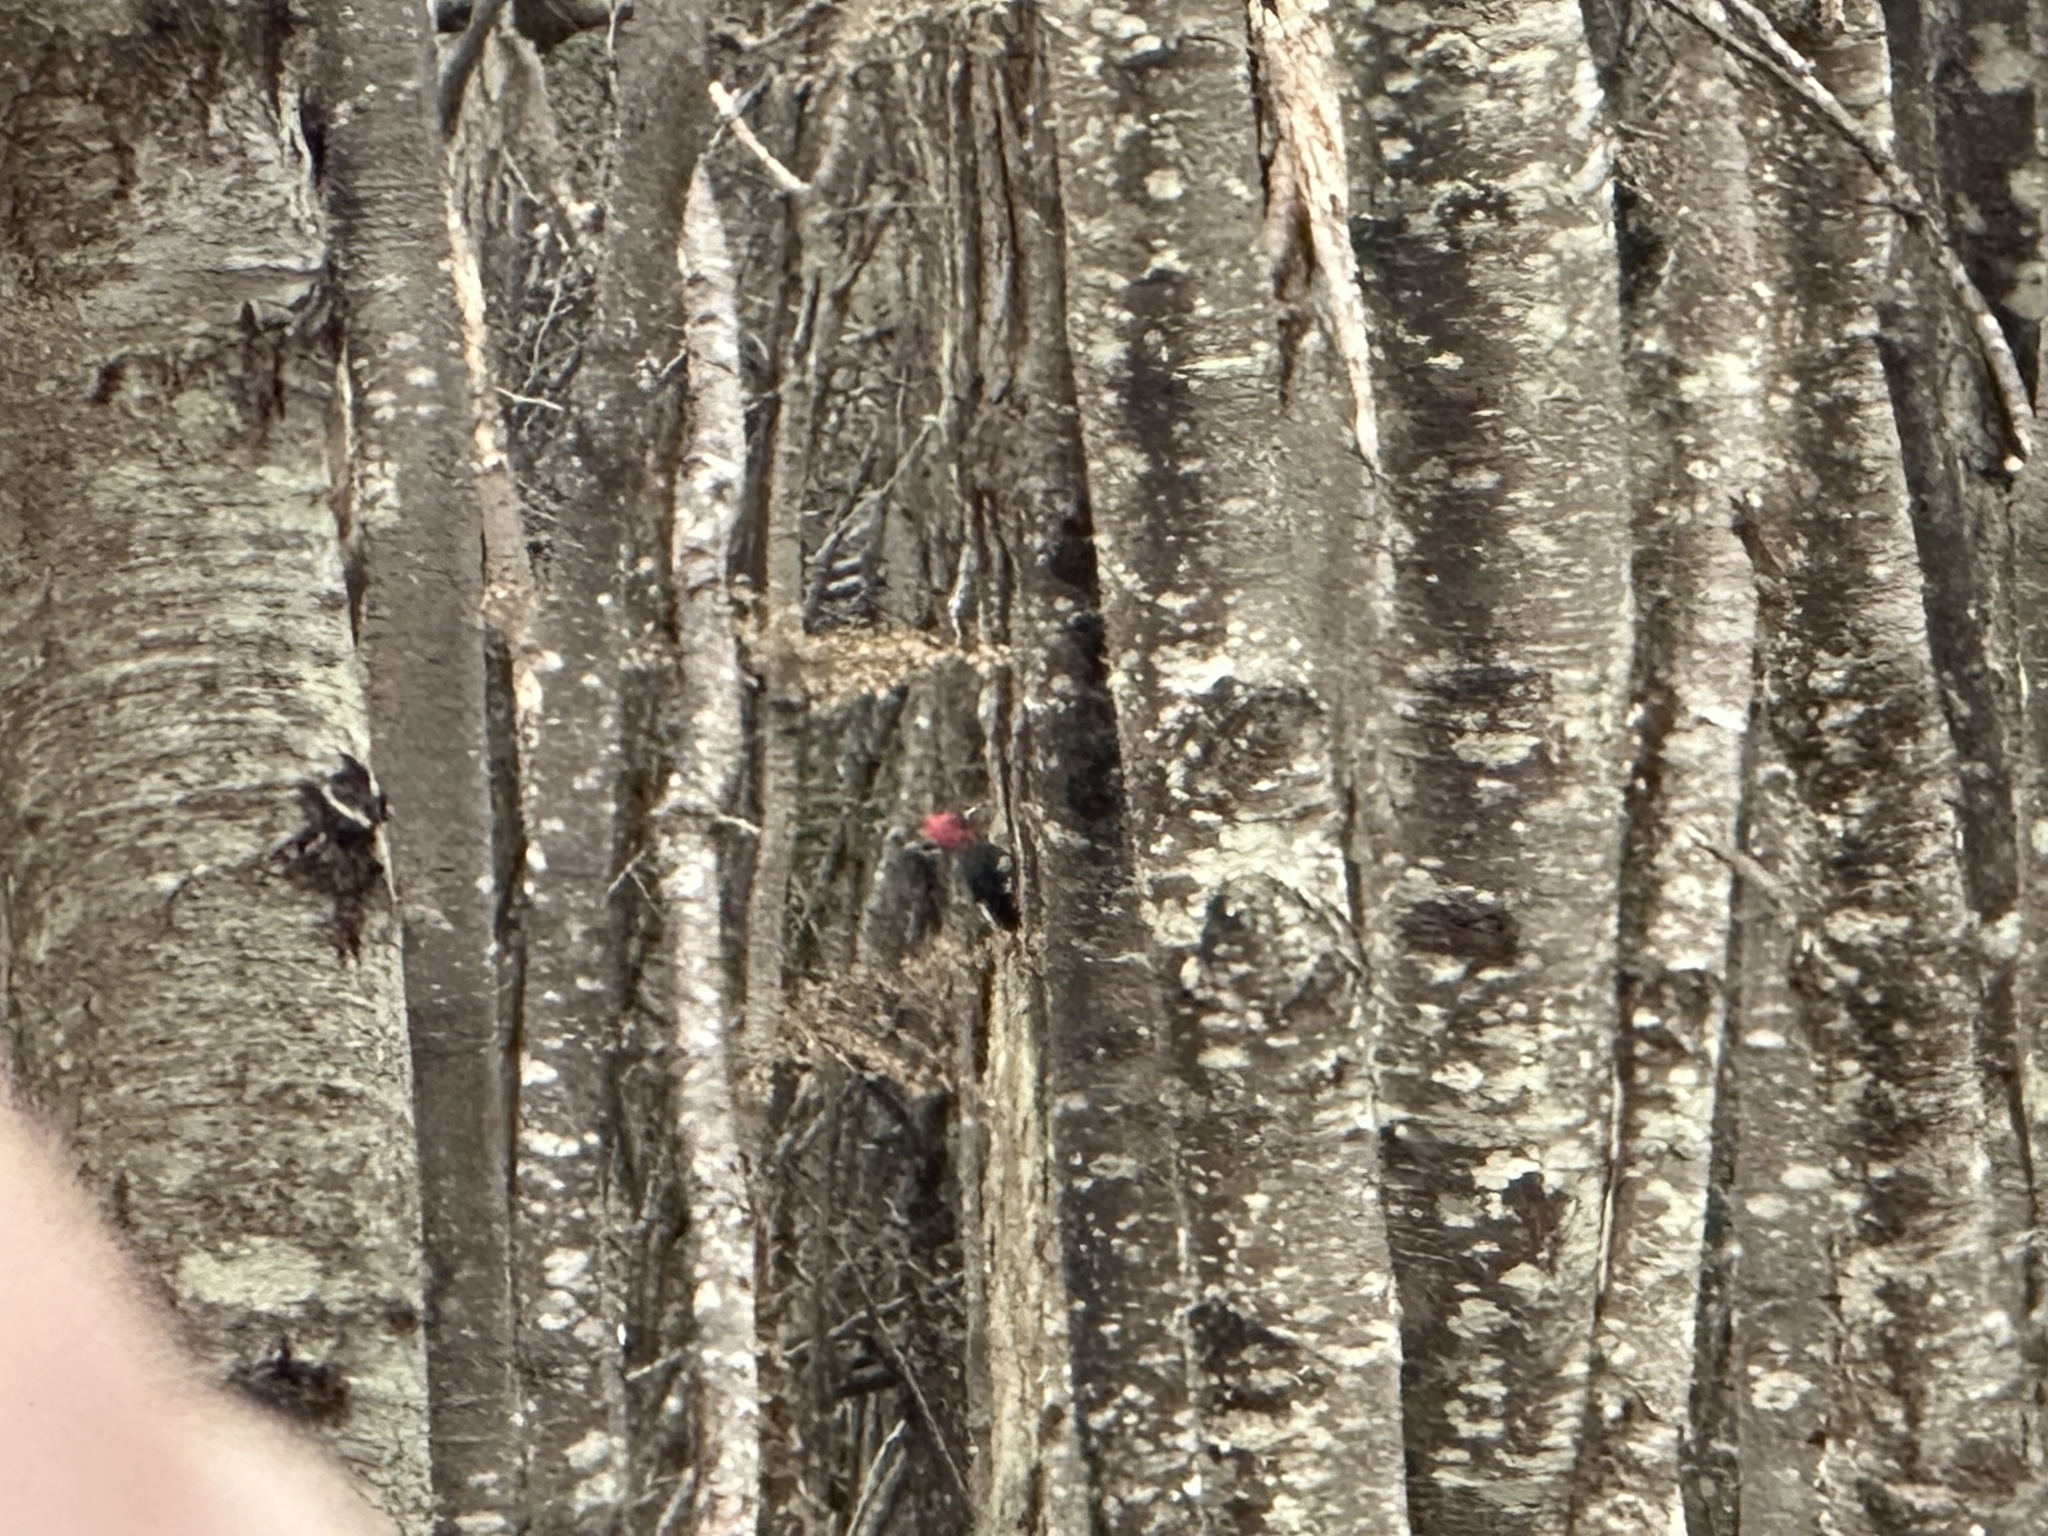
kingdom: Animalia
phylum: Chordata
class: Aves
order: Piciformes
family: Picidae
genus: Campephilus
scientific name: Campephilus magellanicus
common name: Magellanic woodpecker
